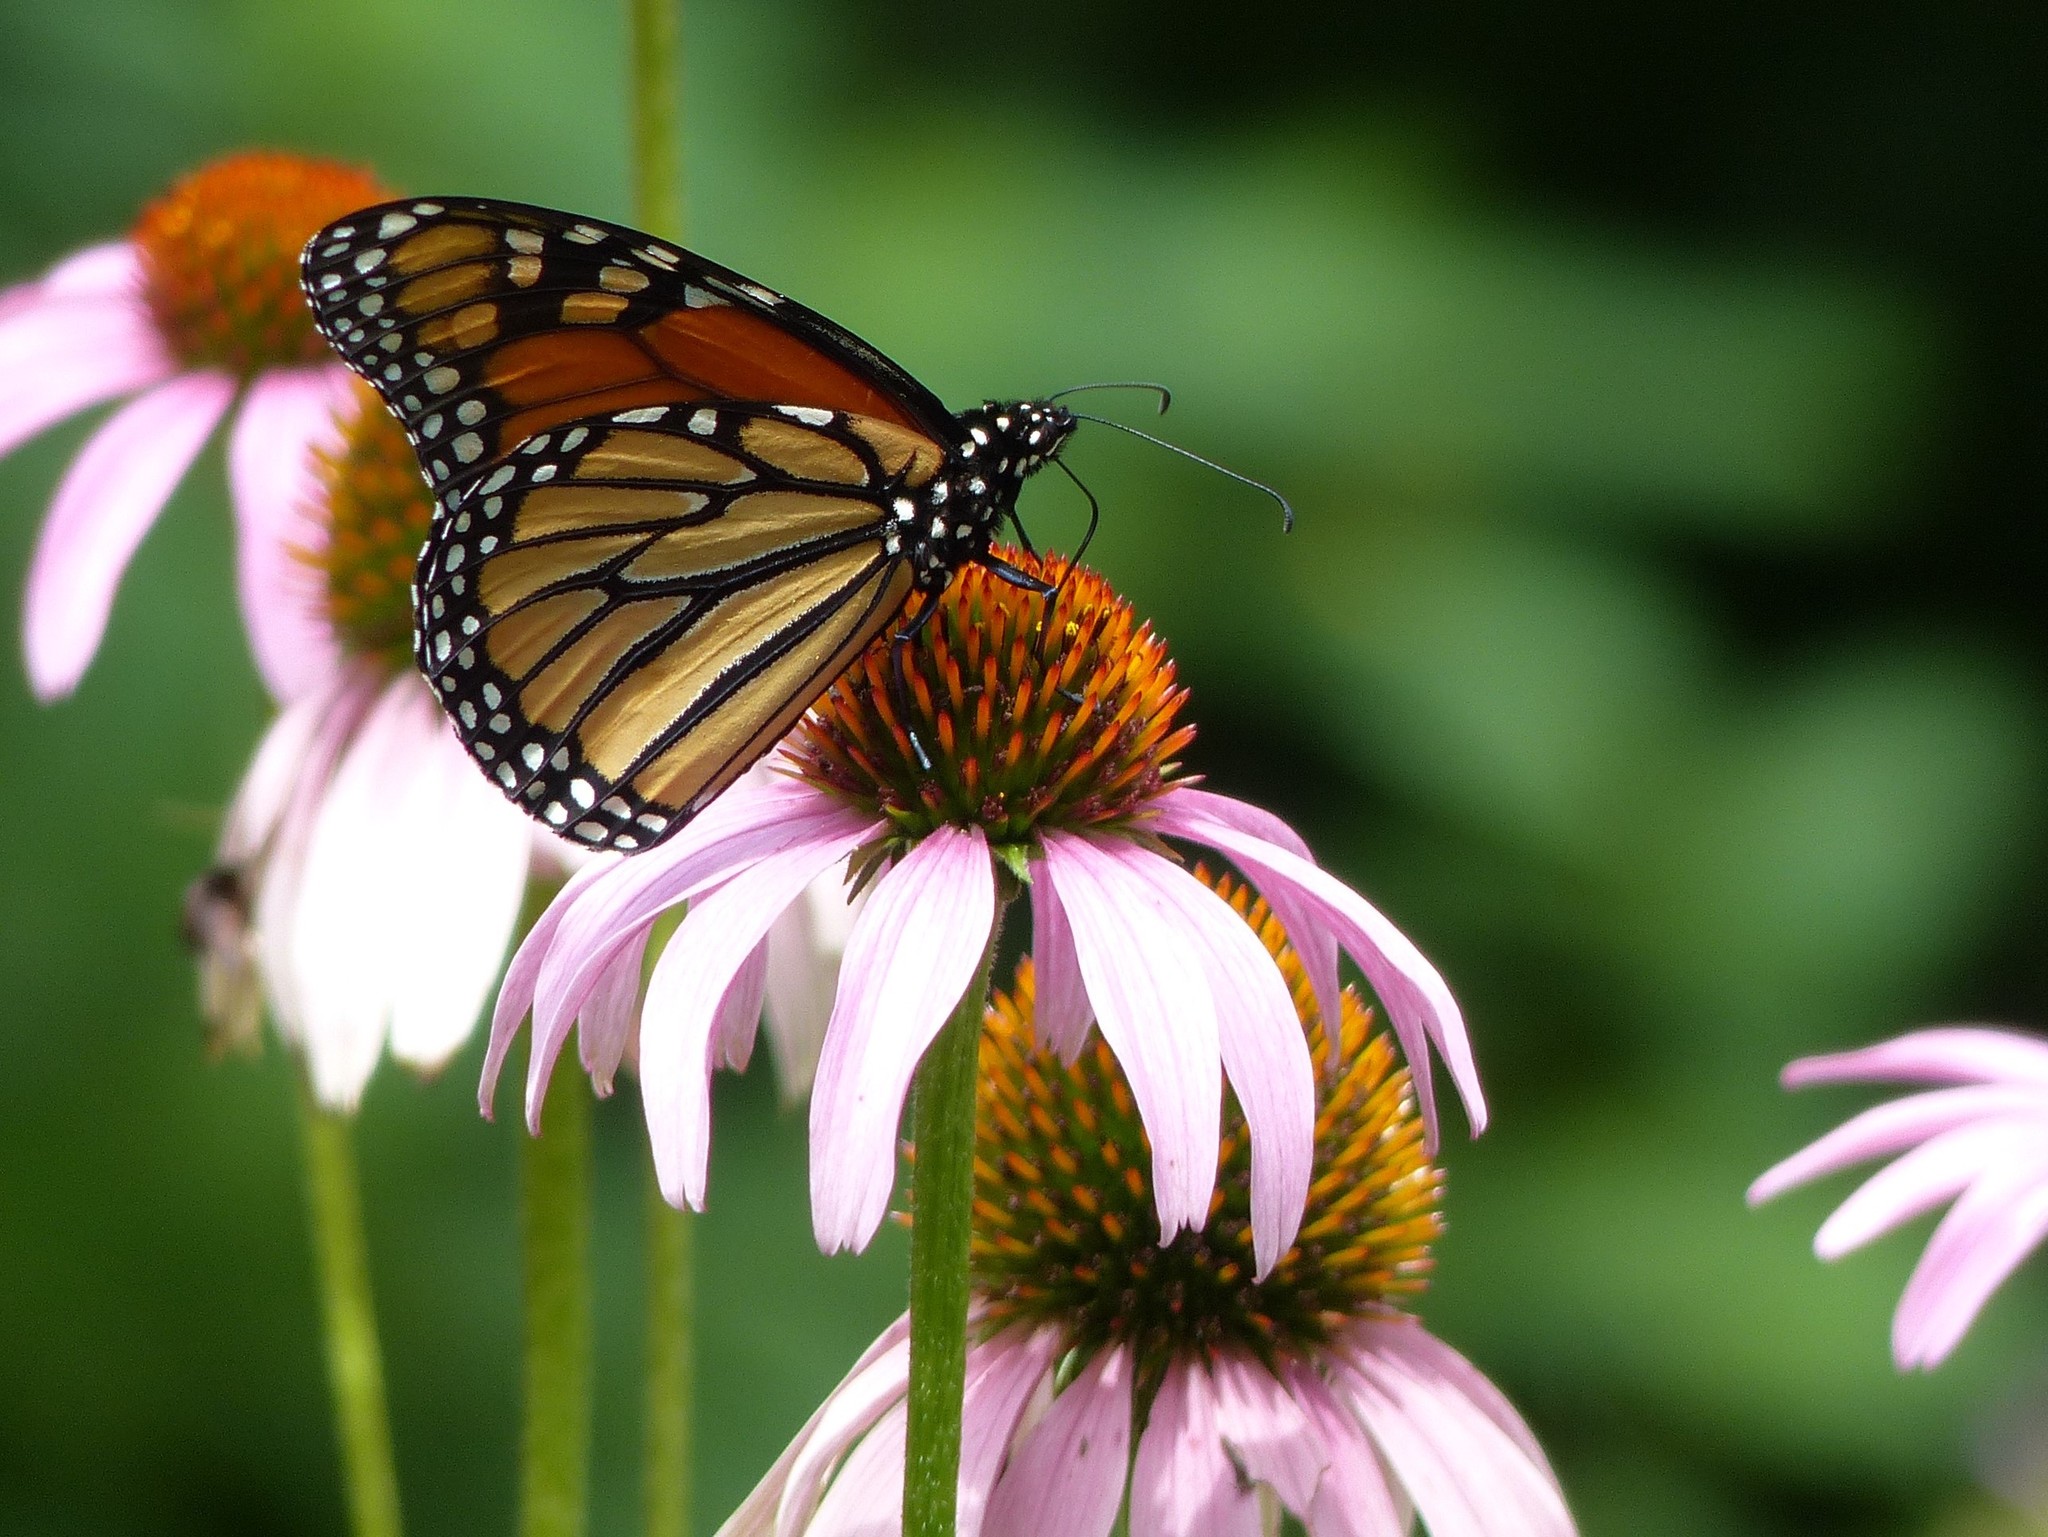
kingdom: Animalia
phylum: Arthropoda
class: Insecta
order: Lepidoptera
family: Nymphalidae
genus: Danaus
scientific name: Danaus plexippus
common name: Monarch
